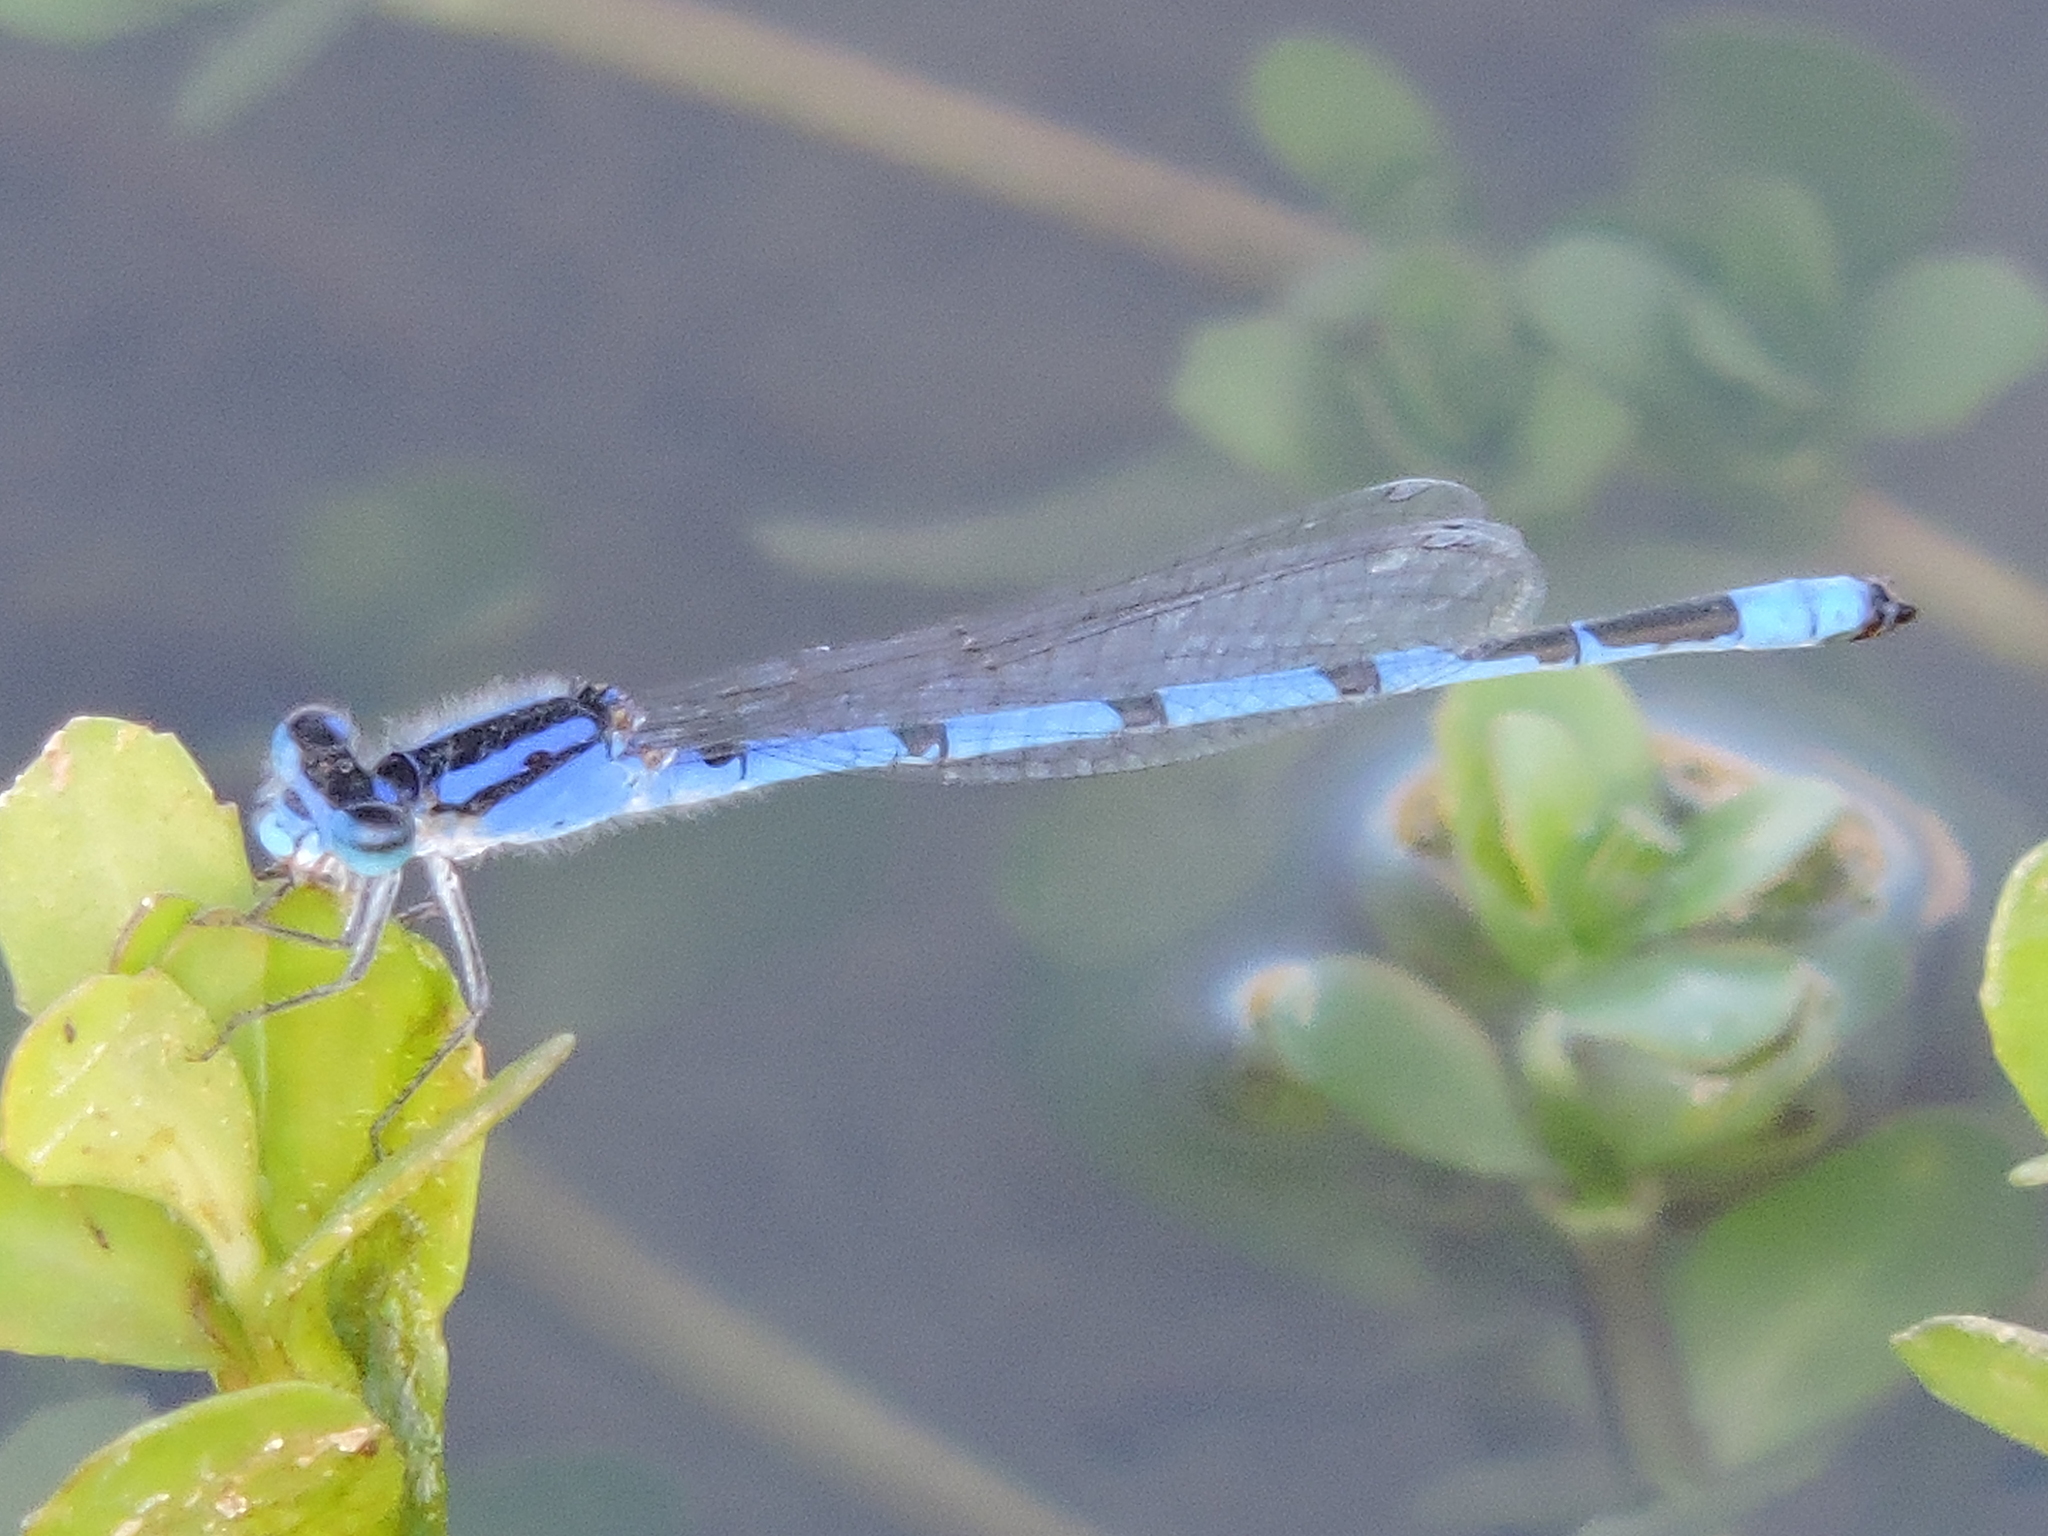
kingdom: Animalia
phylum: Arthropoda
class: Insecta
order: Odonata
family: Coenagrionidae
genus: Enallagma
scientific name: Enallagma civile
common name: Damselfly
